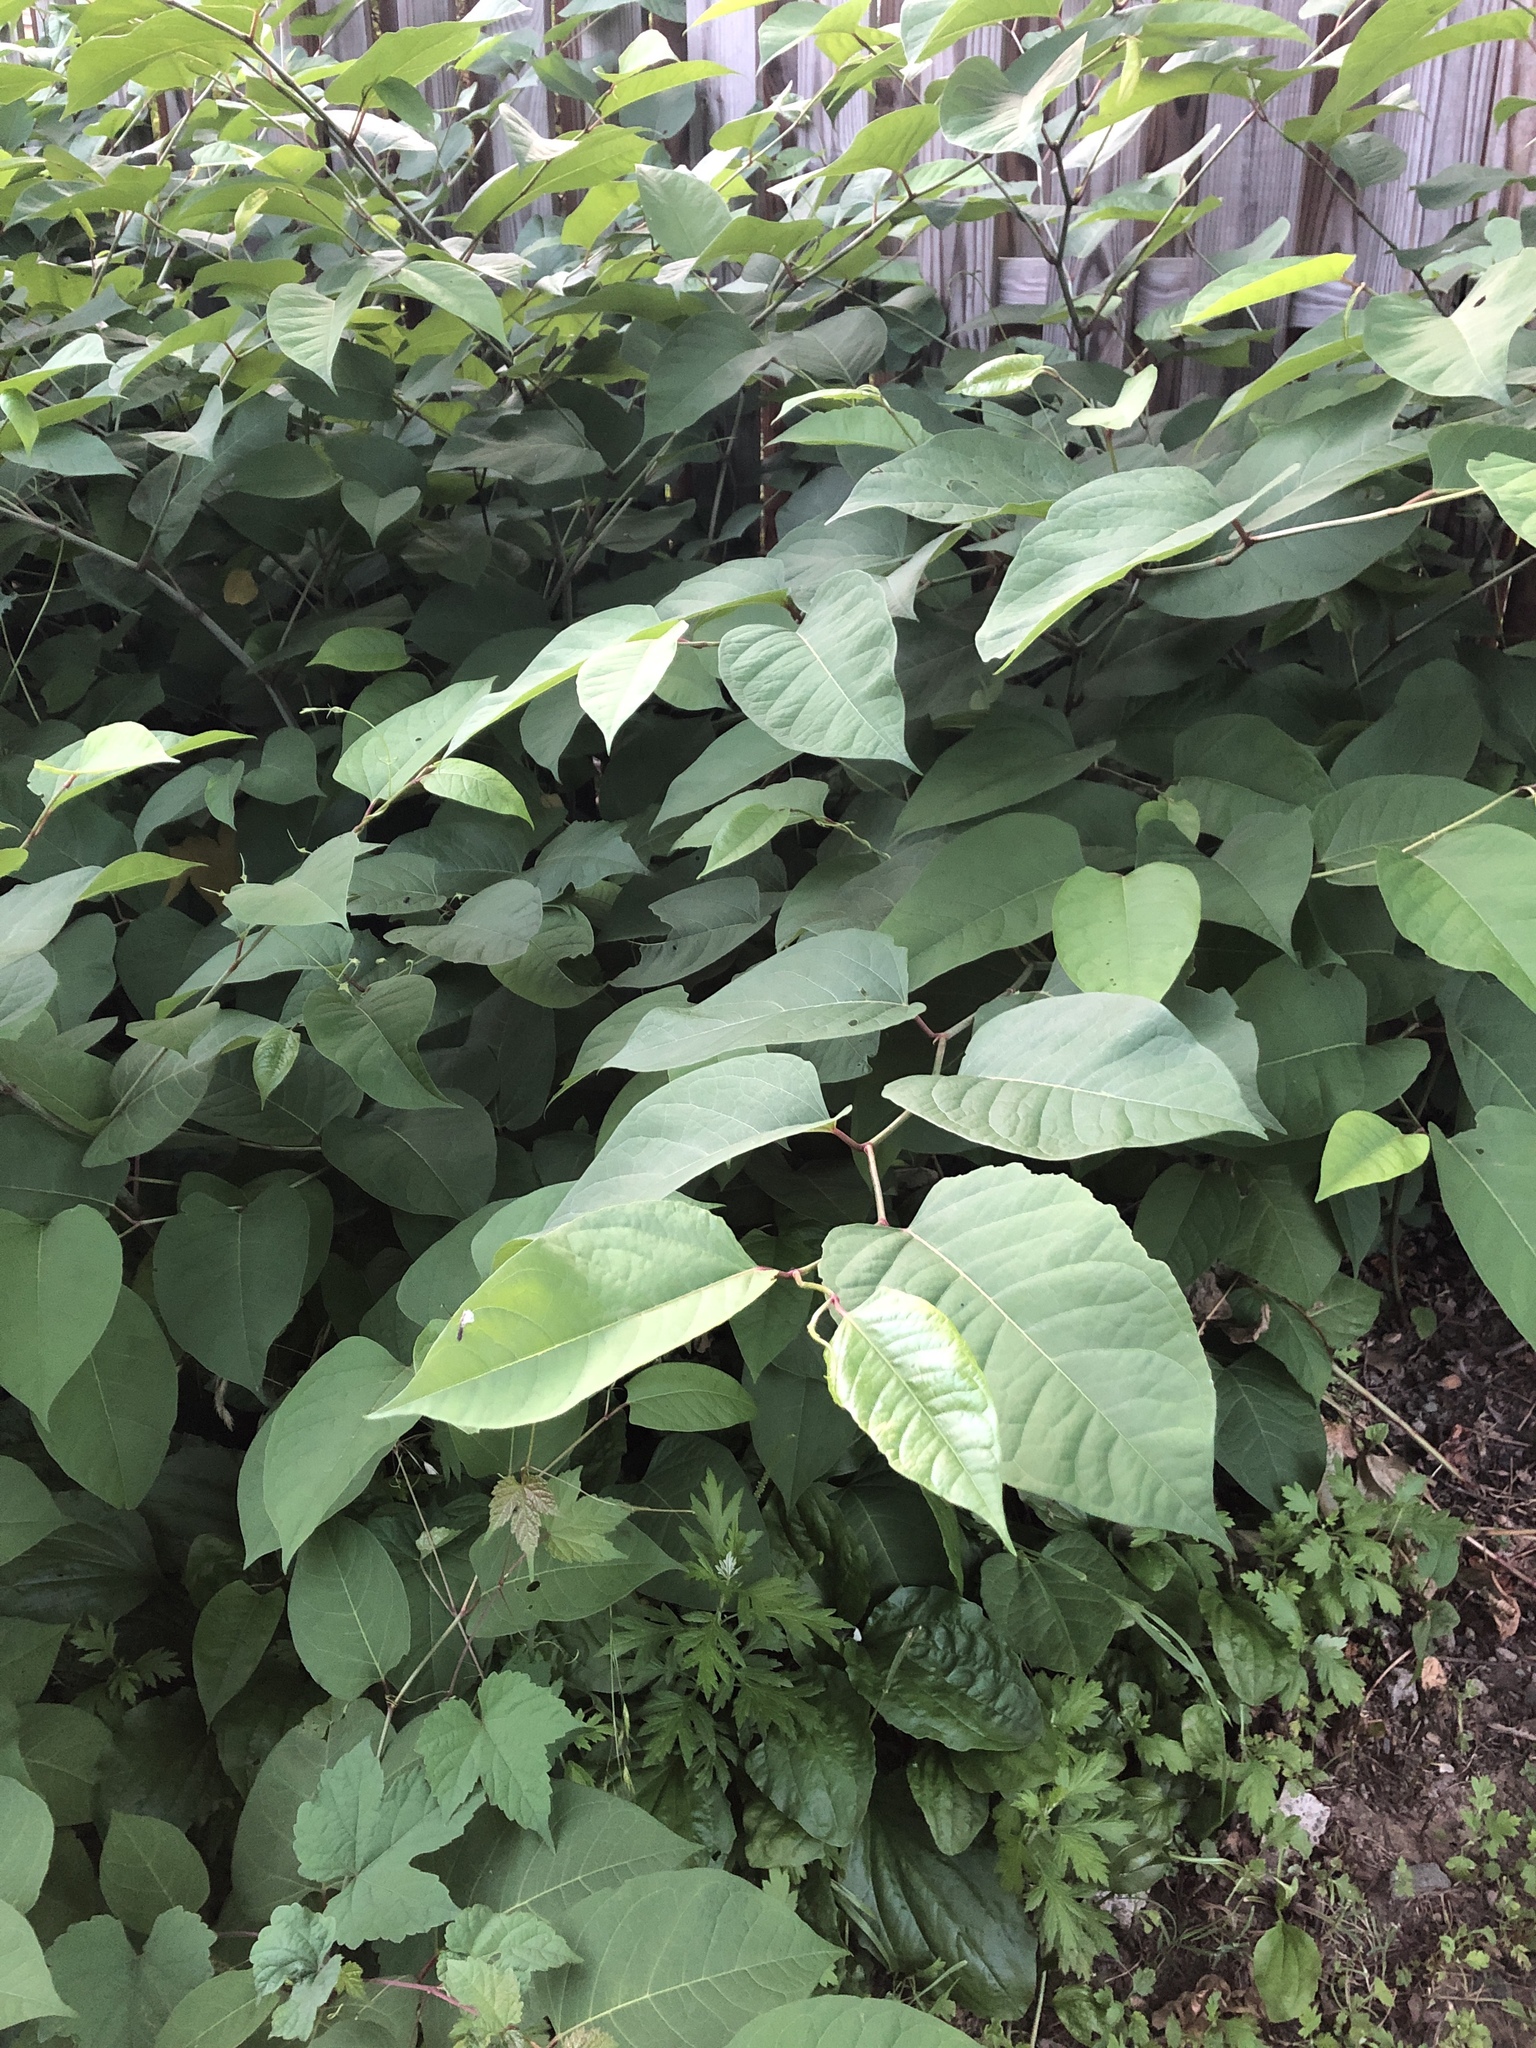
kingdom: Plantae
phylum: Tracheophyta
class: Magnoliopsida
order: Caryophyllales
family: Polygonaceae
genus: Reynoutria
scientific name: Reynoutria japonica
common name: Japanese knotweed
